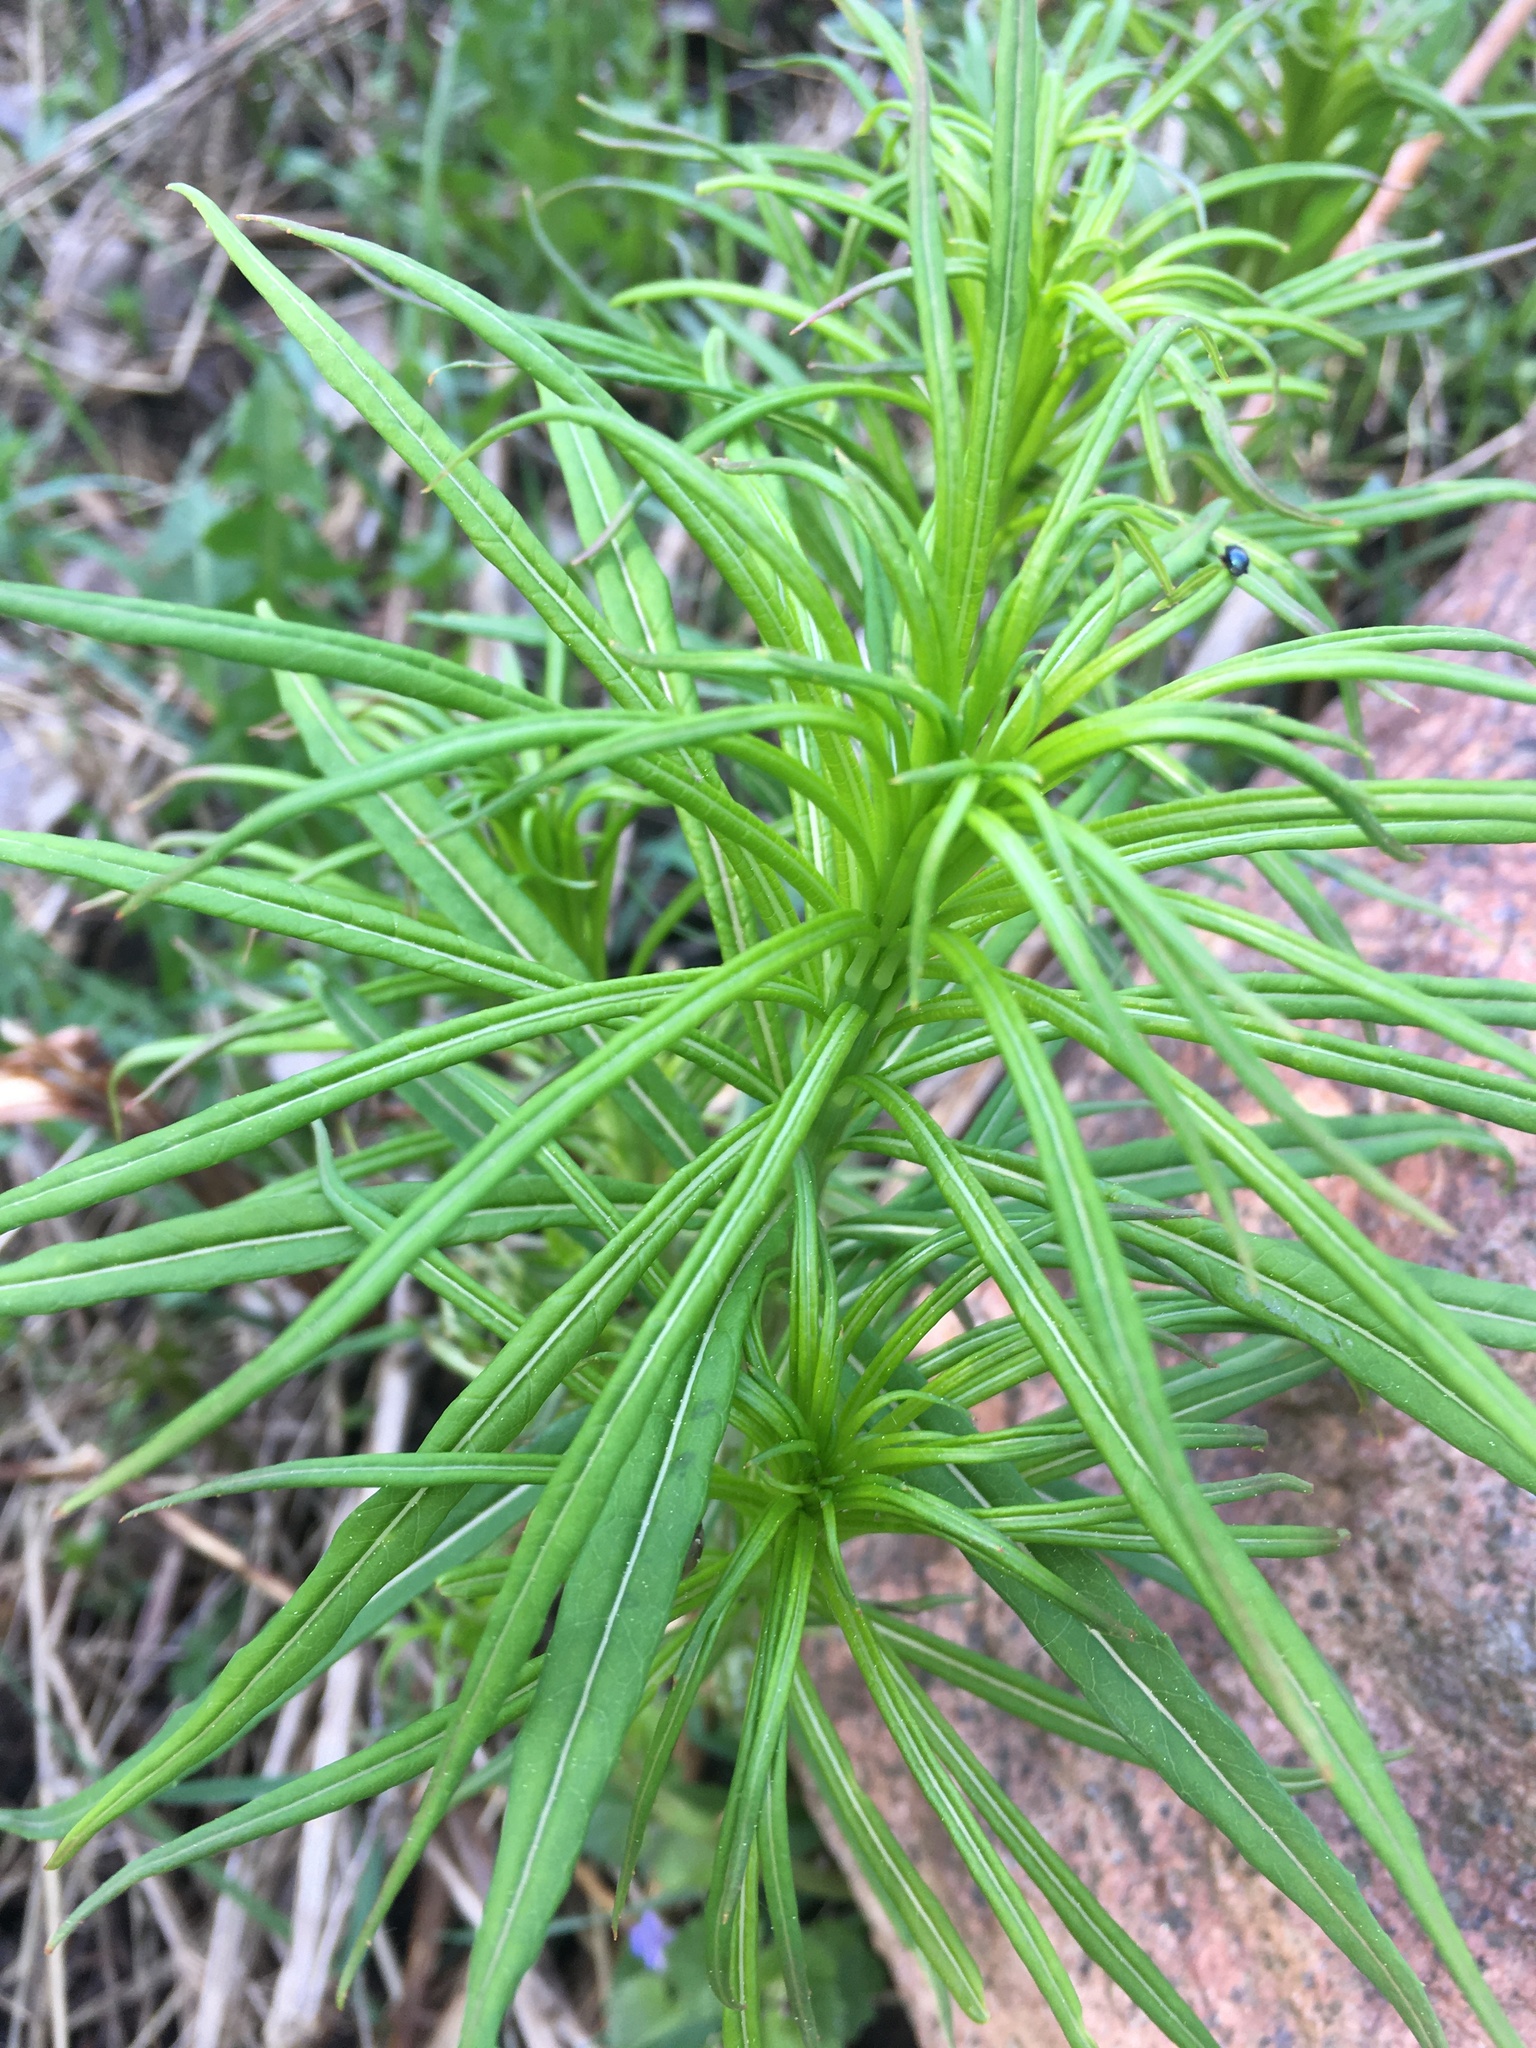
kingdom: Plantae
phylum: Tracheophyta
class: Magnoliopsida
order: Myrtales
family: Onagraceae
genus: Chamaenerion
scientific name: Chamaenerion angustifolium
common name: Fireweed
